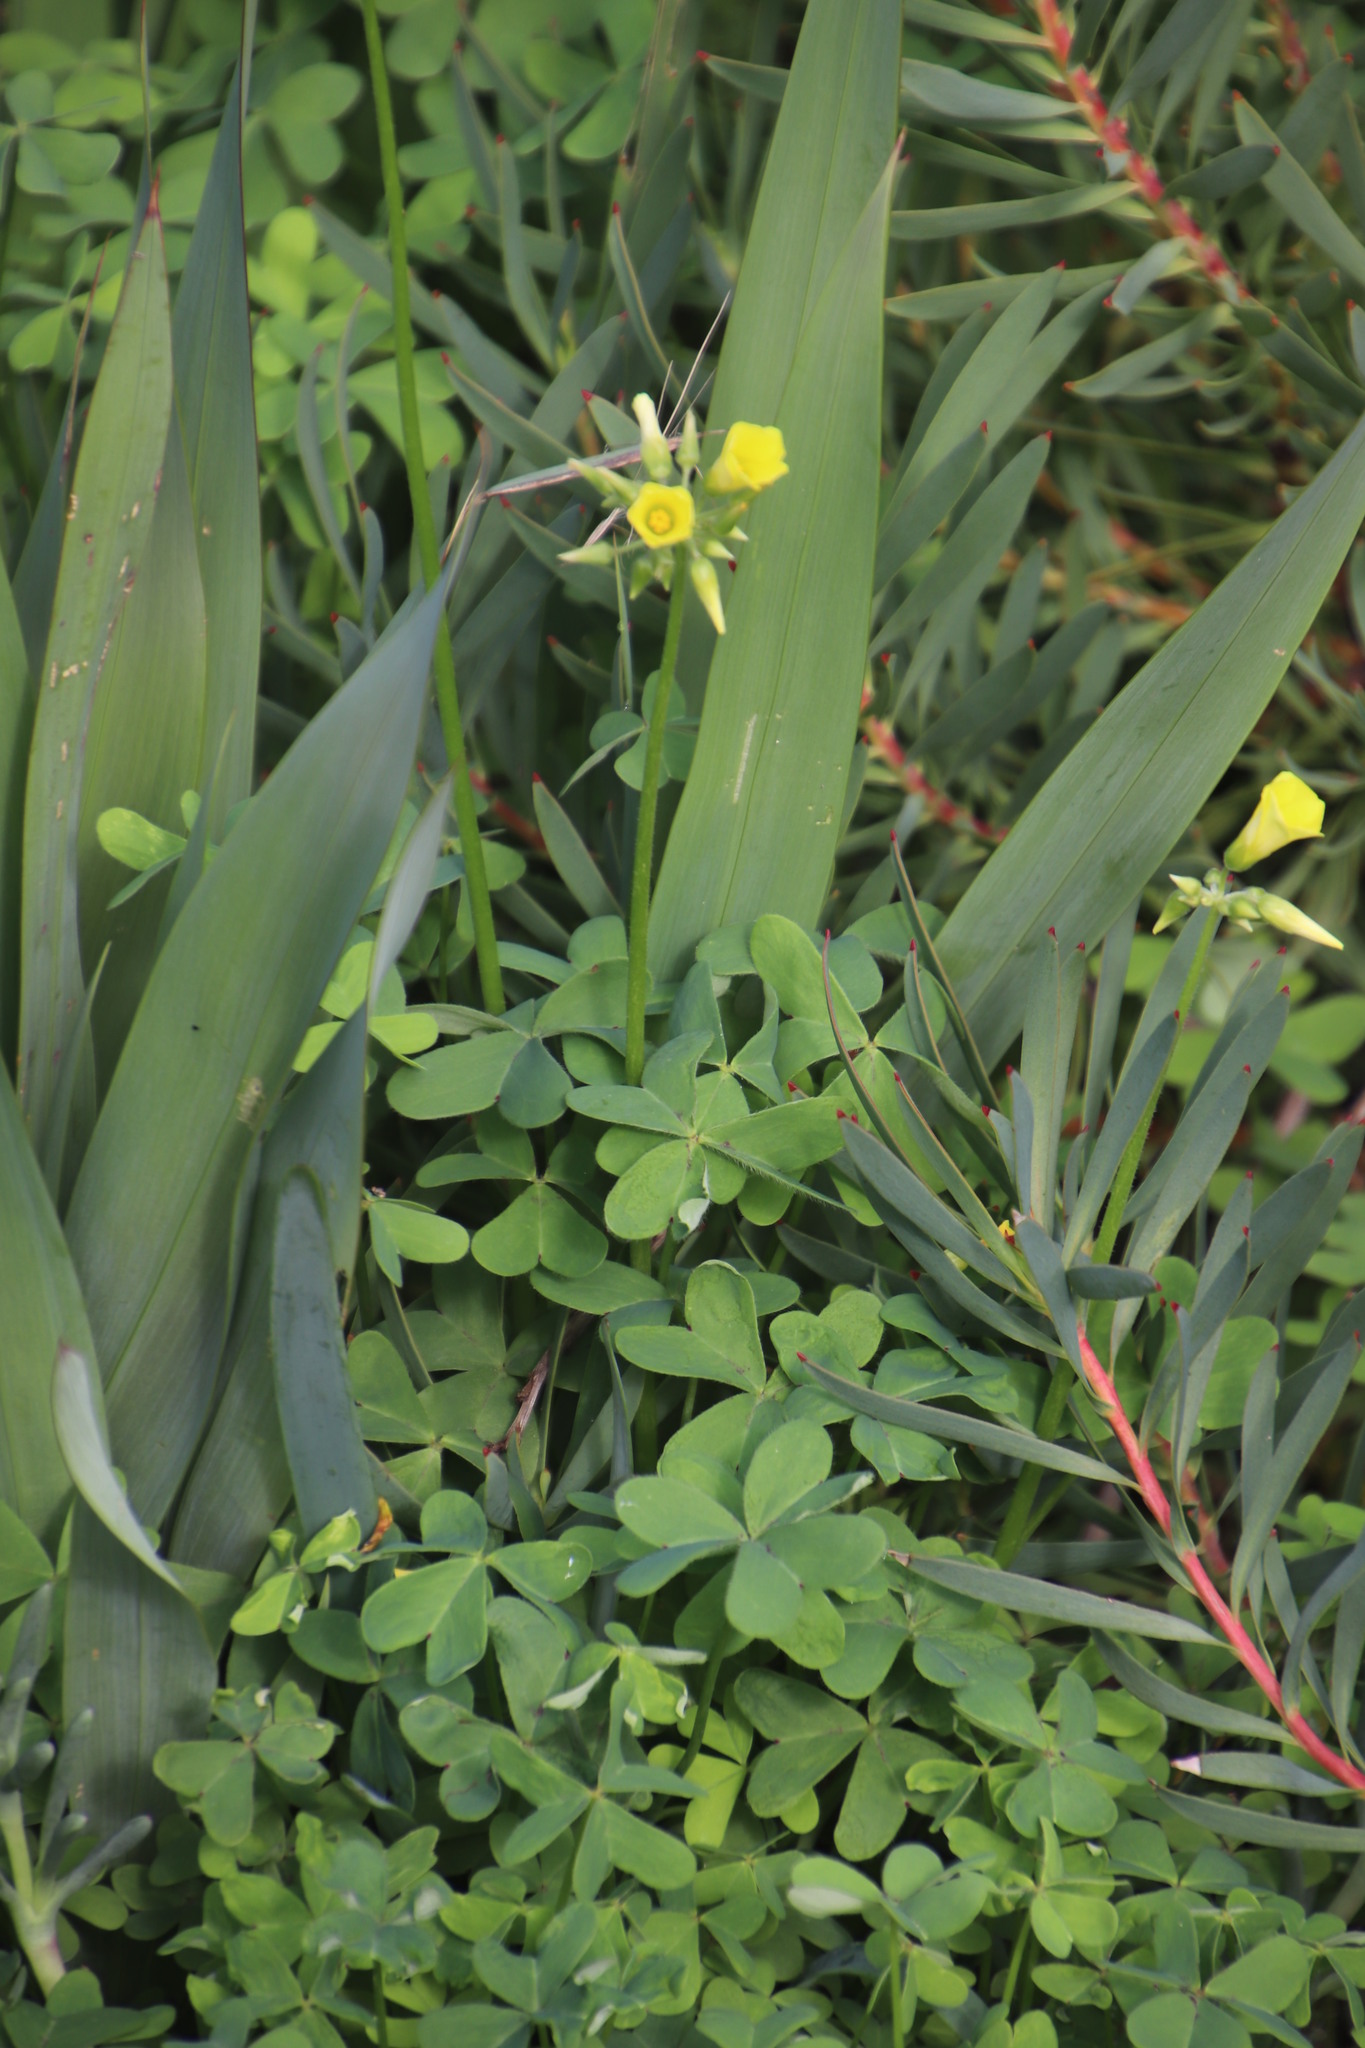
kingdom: Plantae
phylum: Tracheophyta
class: Magnoliopsida
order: Oxalidales
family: Oxalidaceae
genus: Oxalis
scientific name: Oxalis pes-caprae
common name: Bermuda-buttercup
